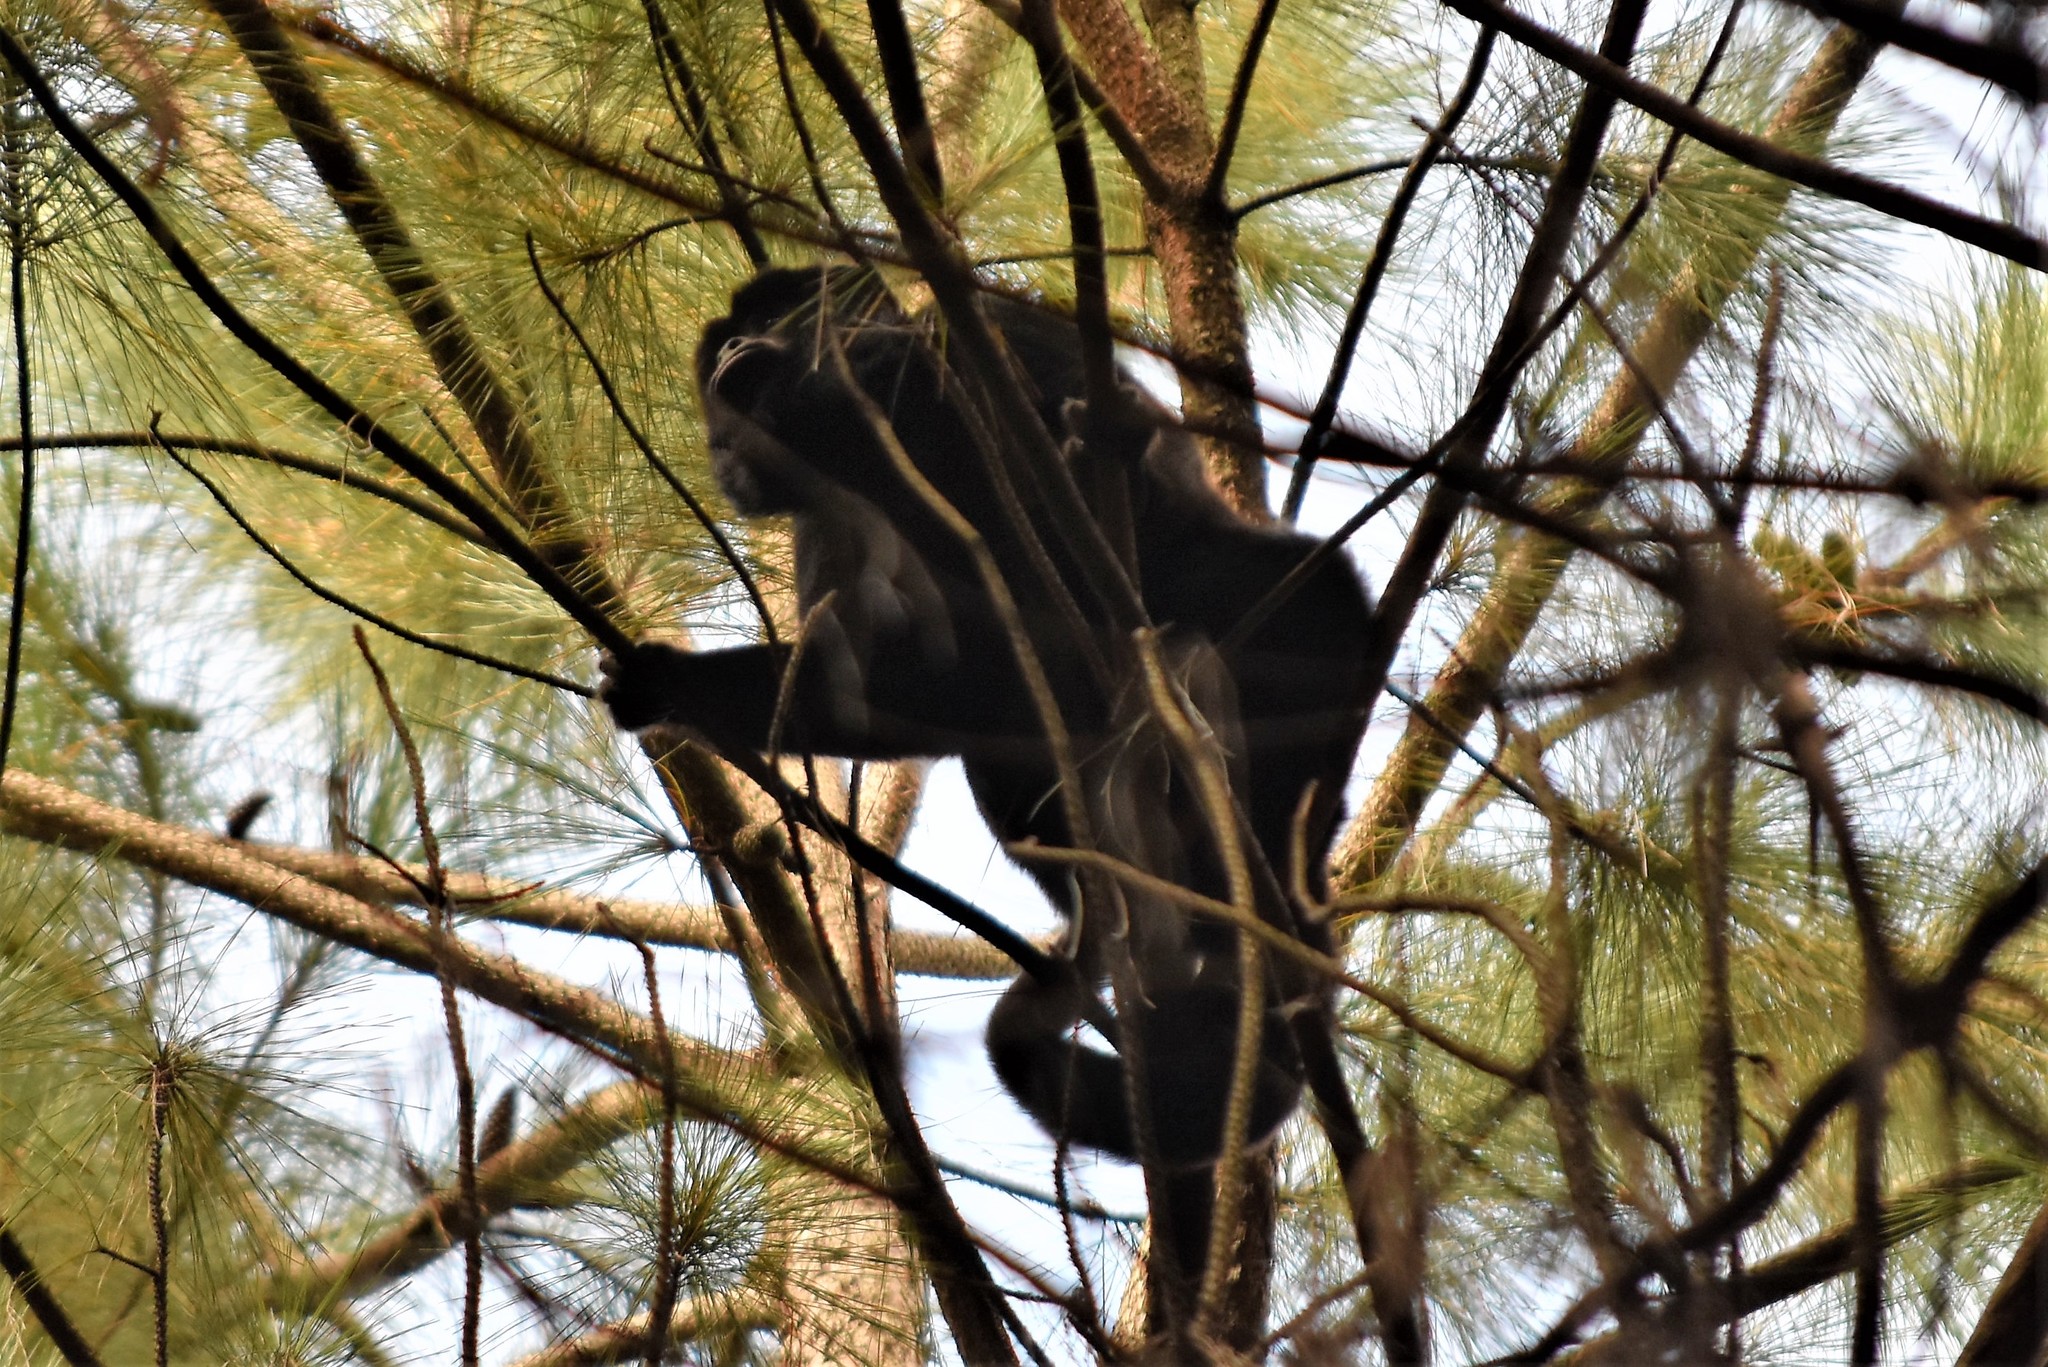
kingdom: Animalia
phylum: Chordata
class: Mammalia
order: Primates
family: Atelidae
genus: Alouatta
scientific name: Alouatta caraya
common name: Black howler
